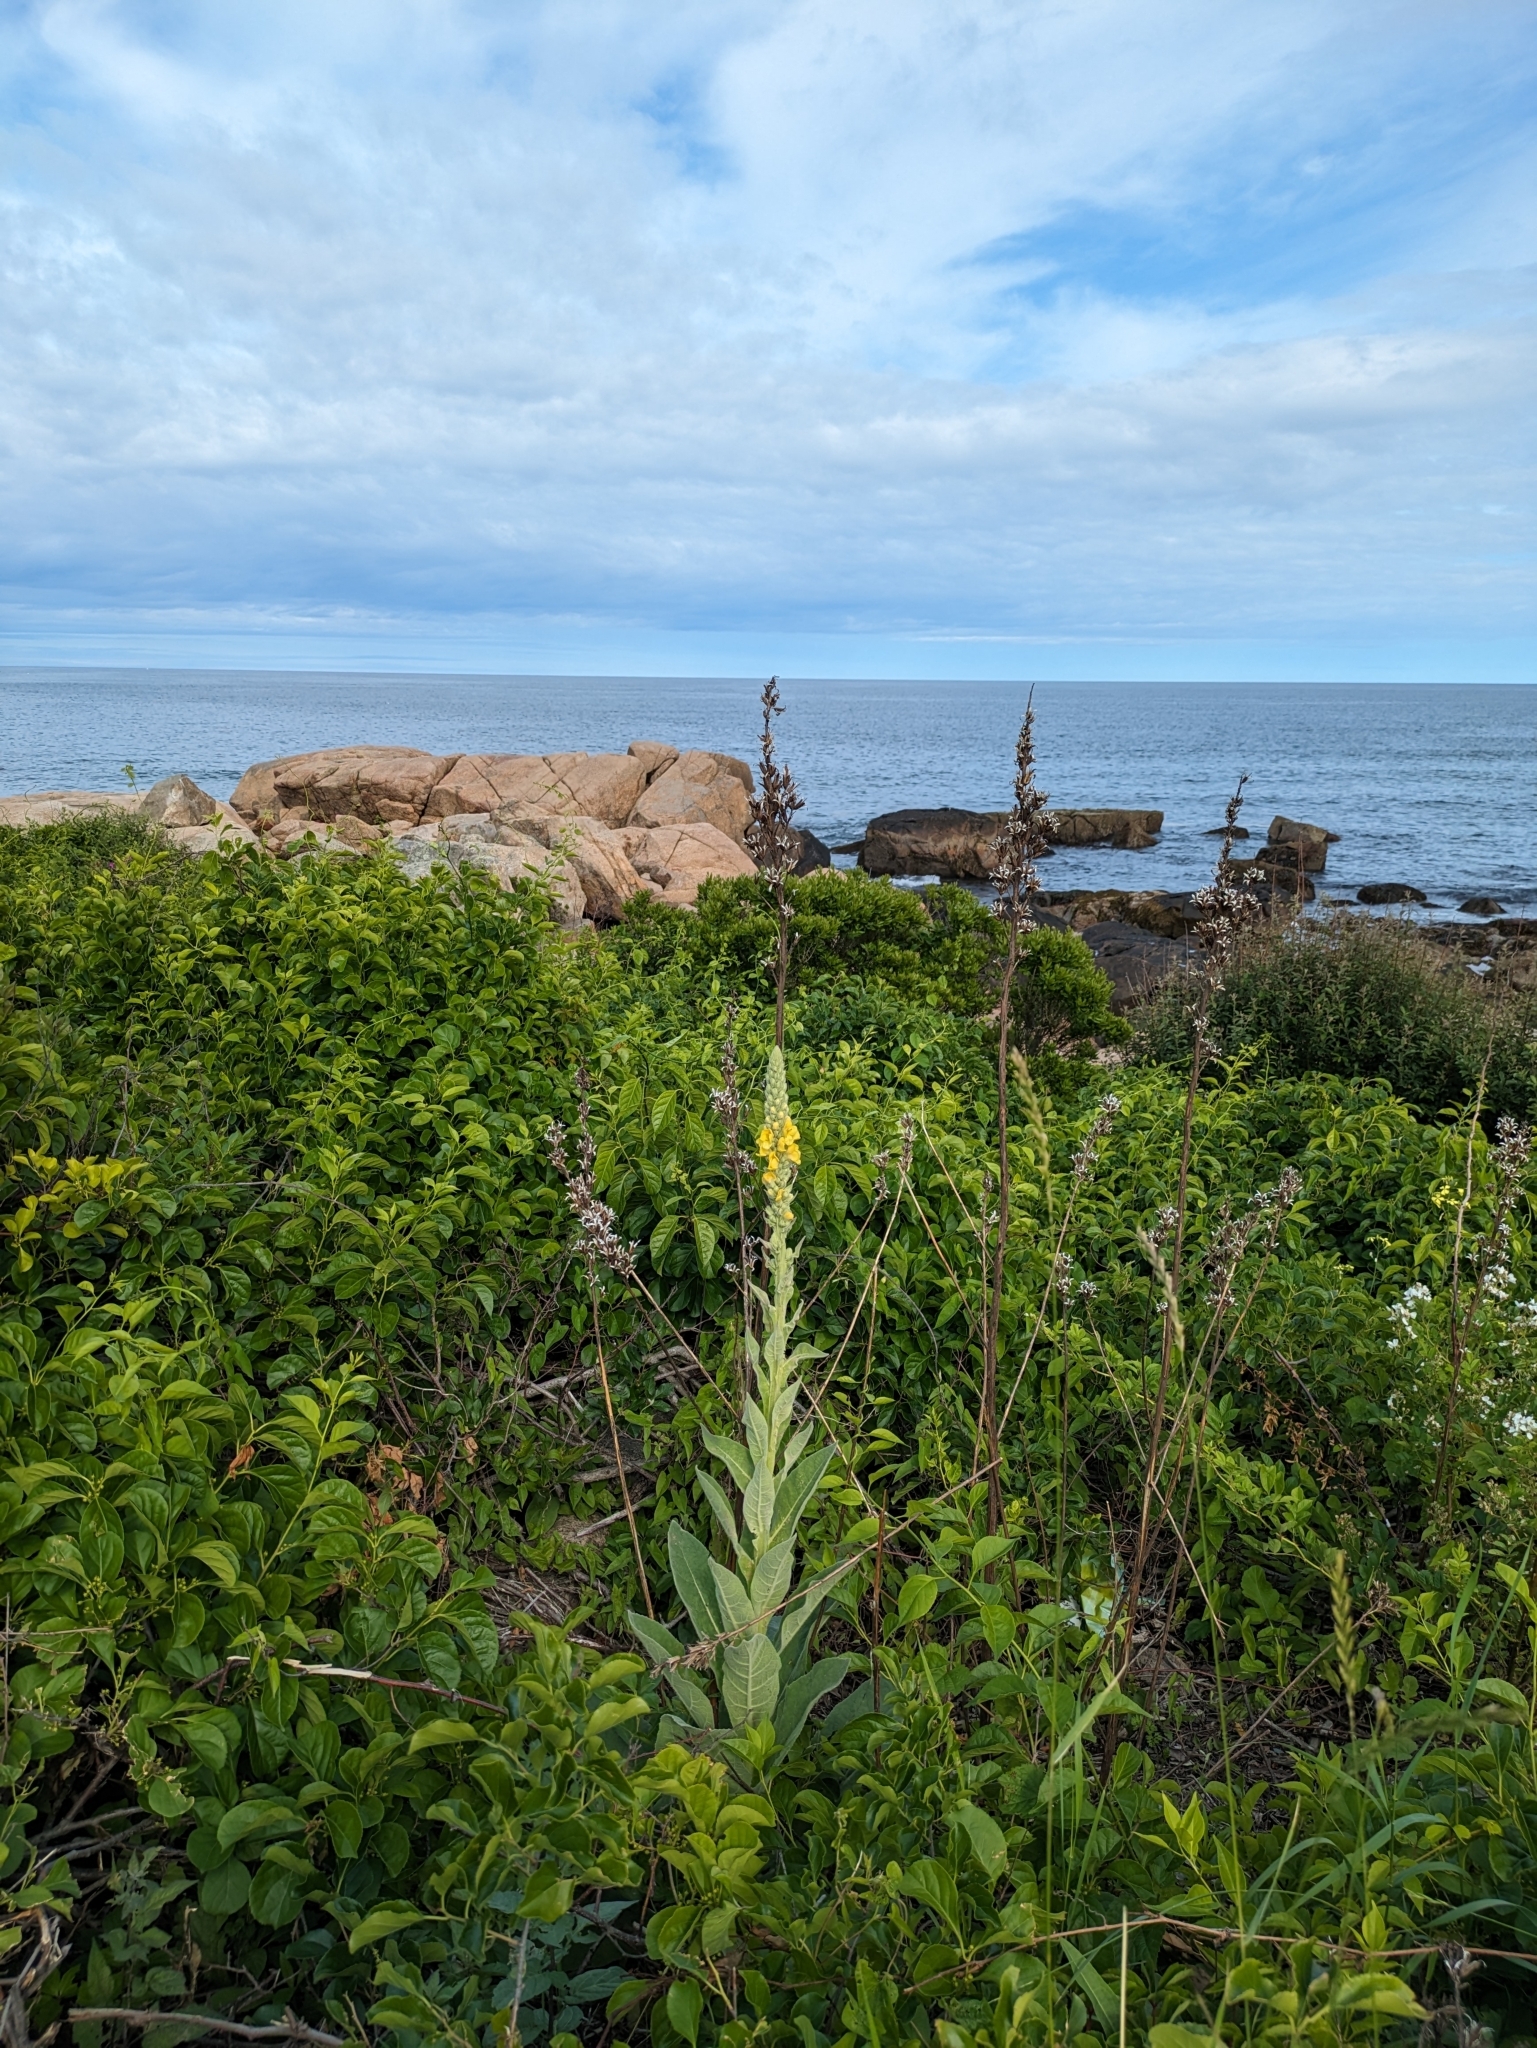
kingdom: Plantae
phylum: Tracheophyta
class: Magnoliopsida
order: Lamiales
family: Scrophulariaceae
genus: Verbascum
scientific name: Verbascum thapsus
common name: Common mullein
